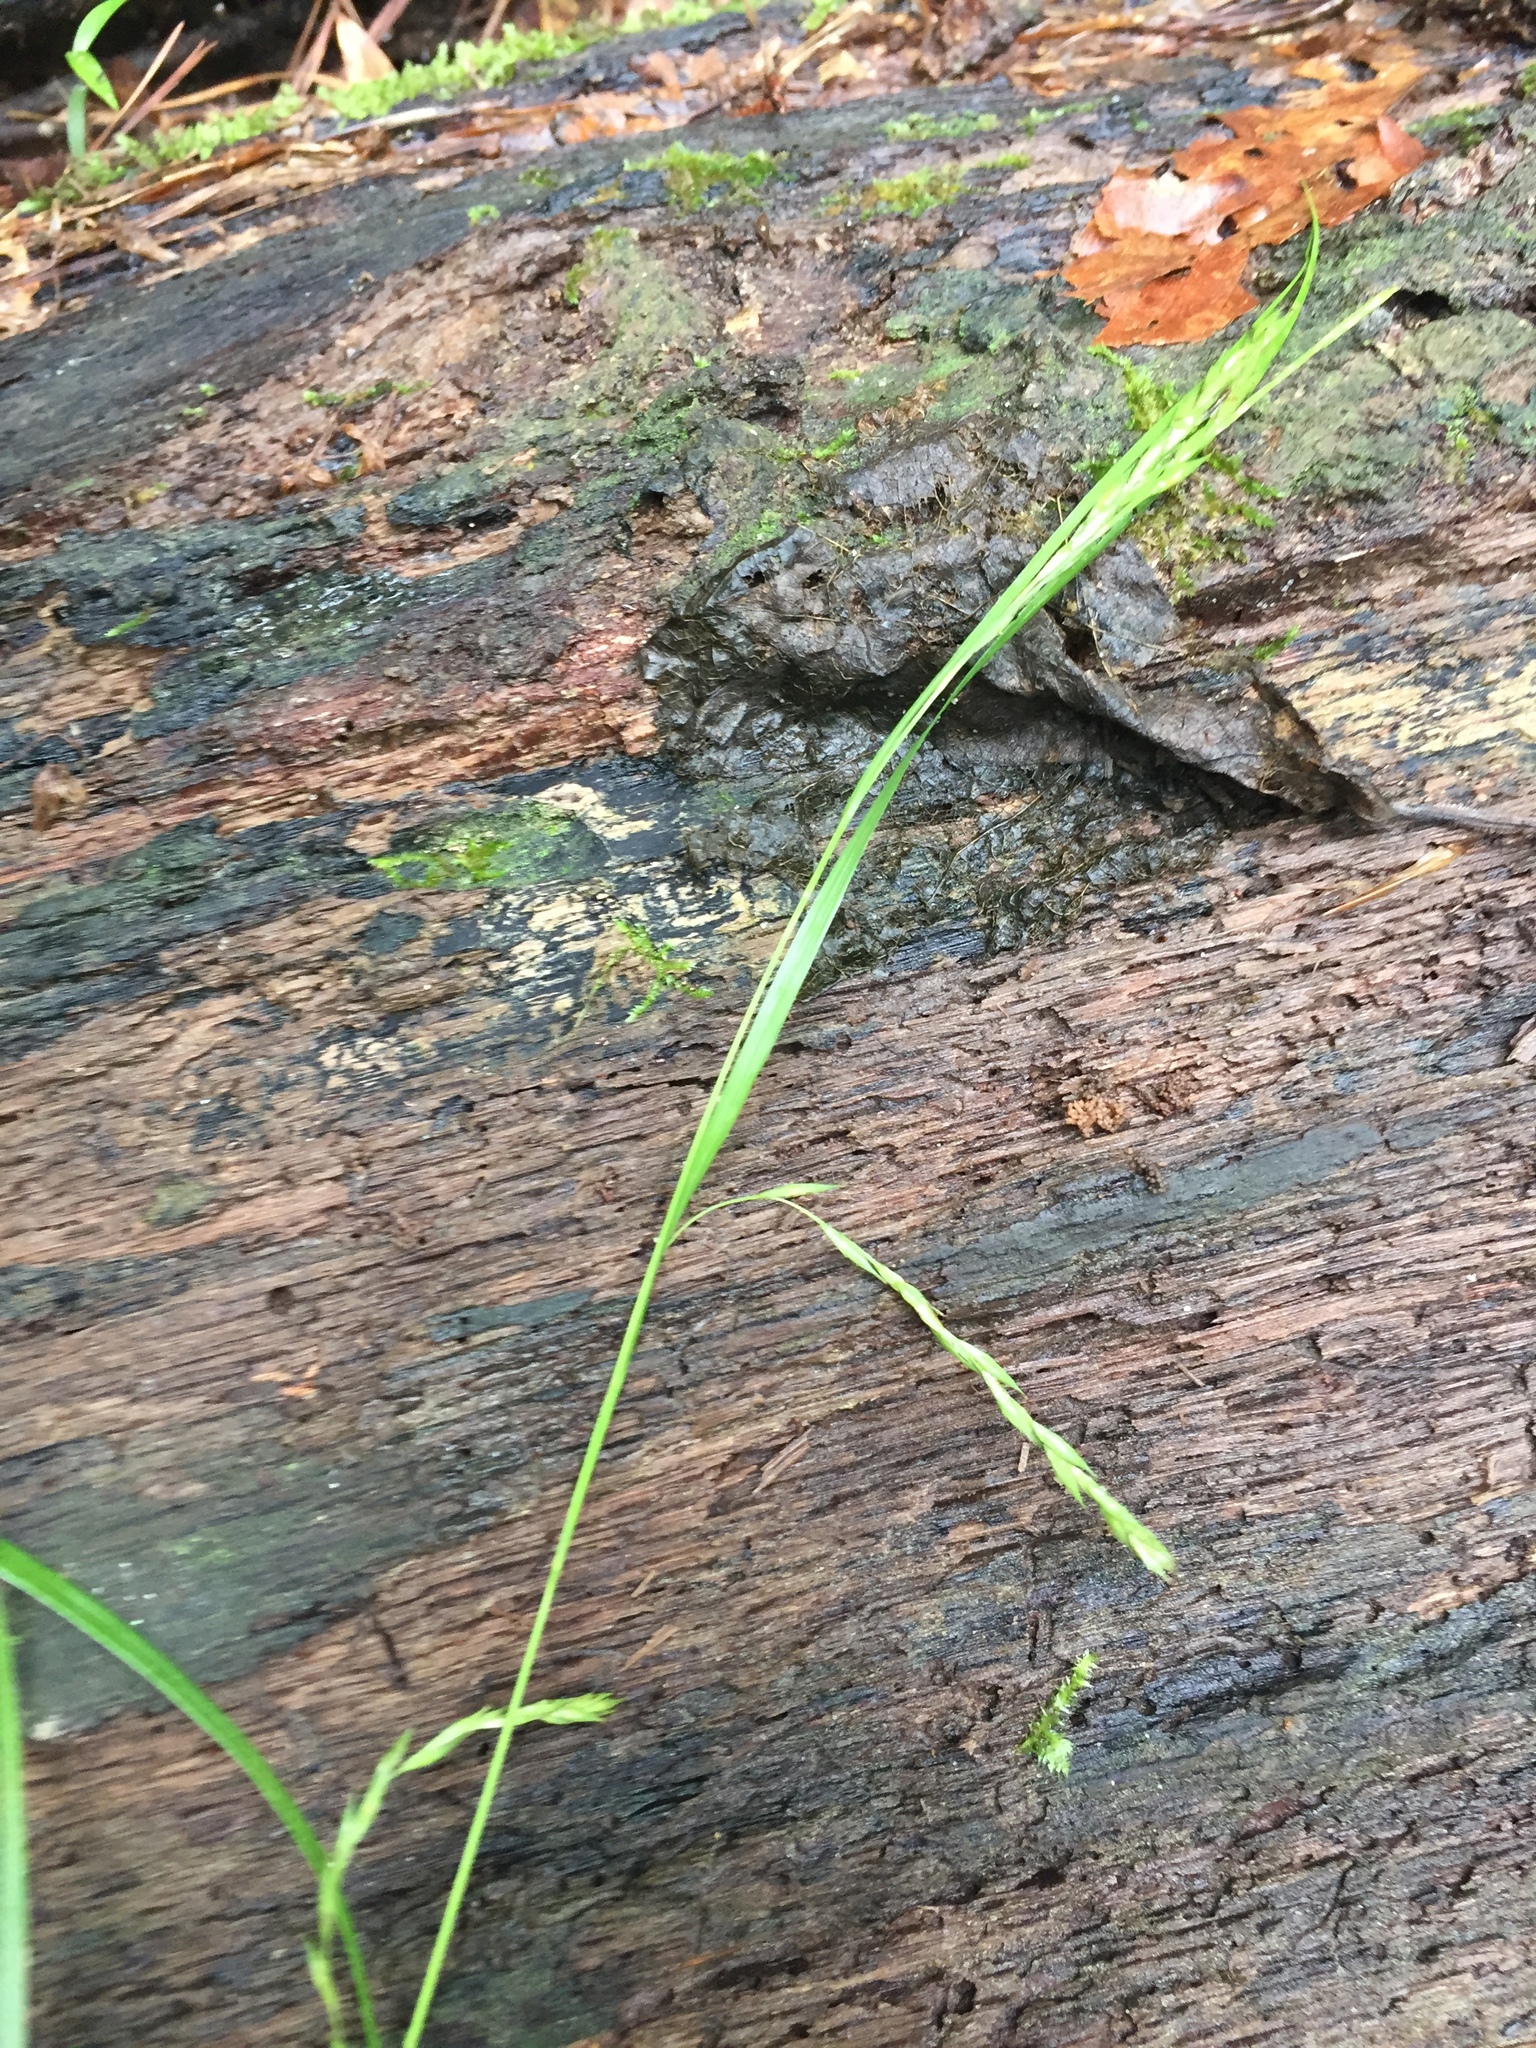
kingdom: Plantae
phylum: Tracheophyta
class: Liliopsida
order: Poales
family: Cyperaceae
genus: Carex
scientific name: Carex debilis
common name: White-edge sedge
